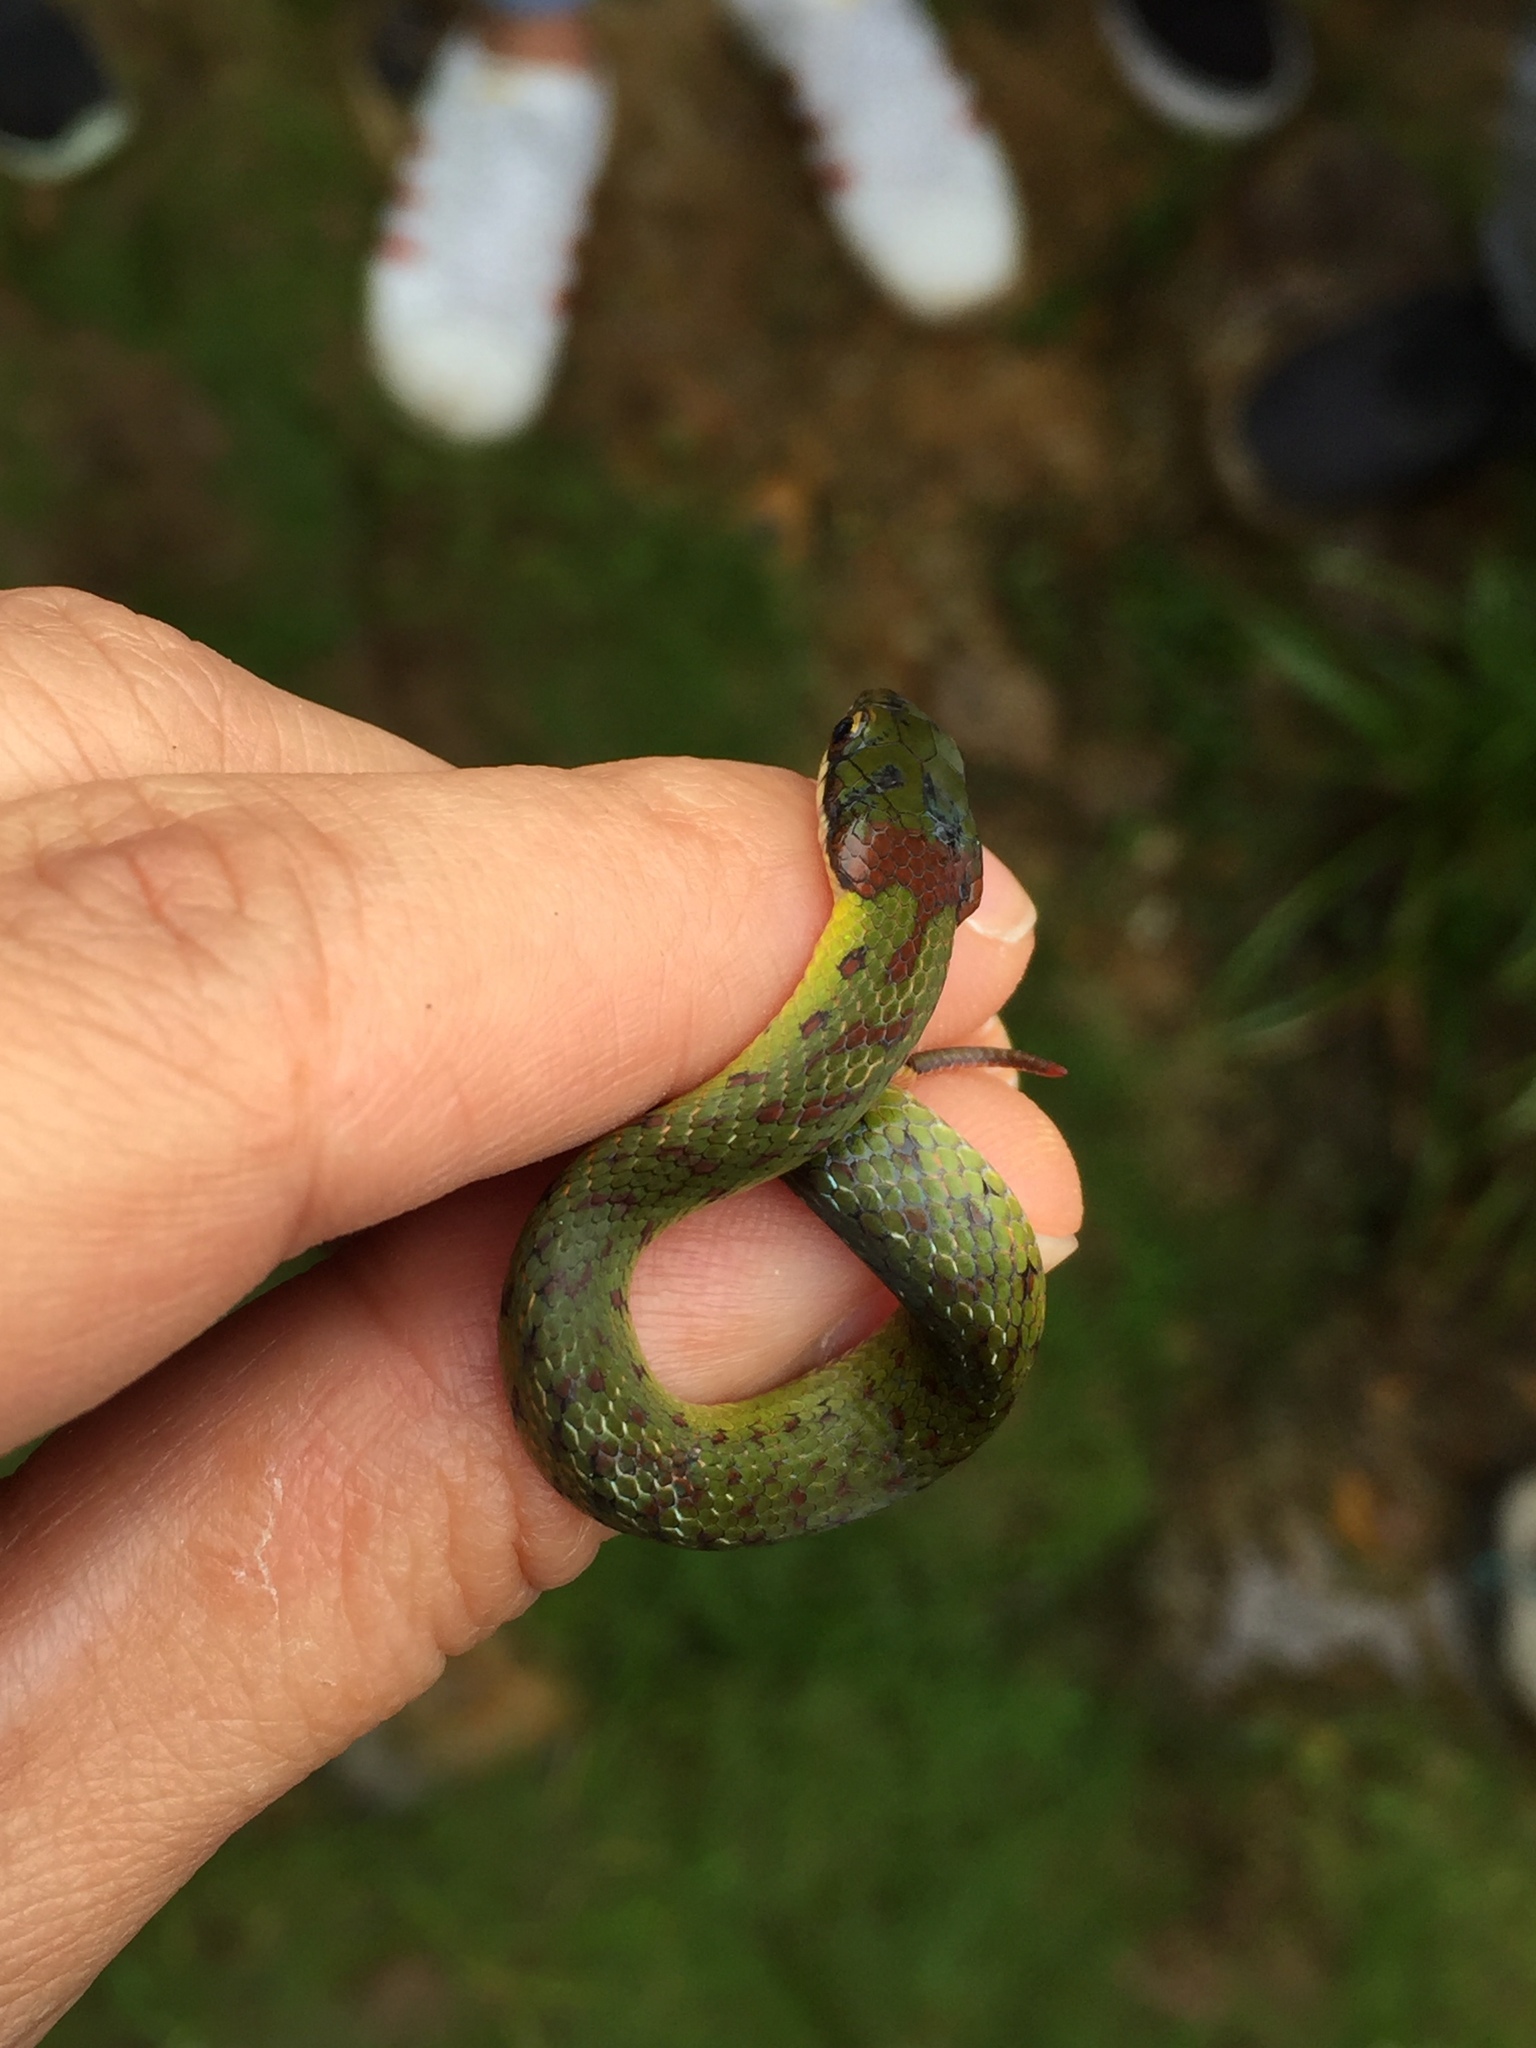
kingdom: Animalia
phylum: Chordata
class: Squamata
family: Colubridae
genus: Erythrolamprus
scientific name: Erythrolamprus epinephalus
